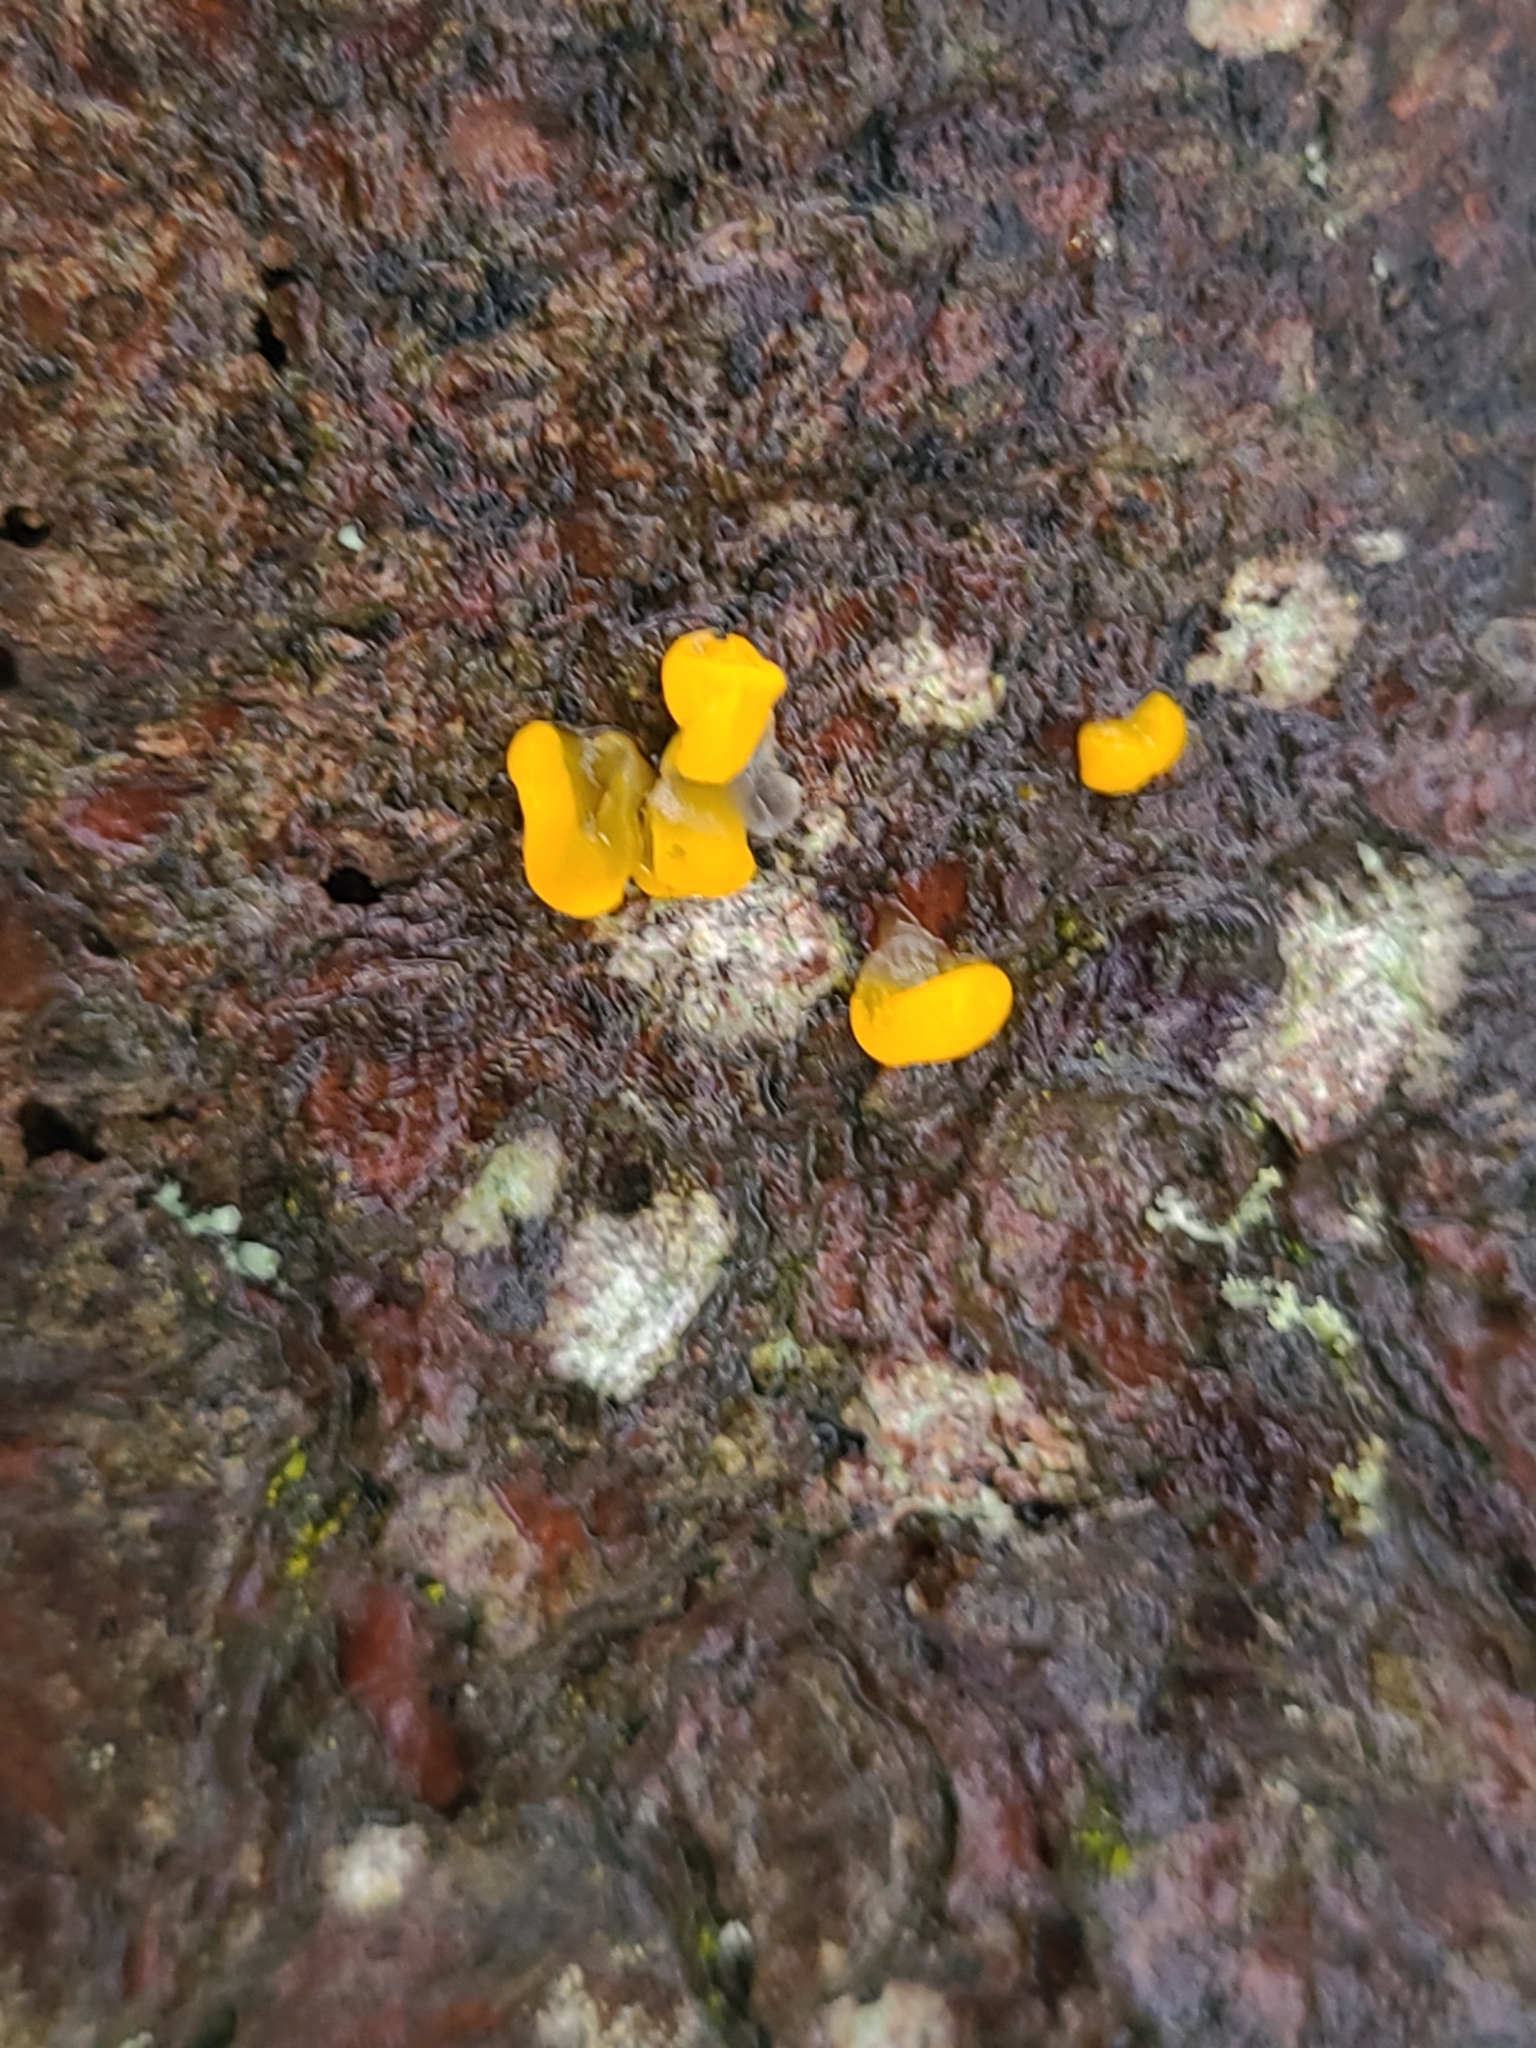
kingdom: Fungi
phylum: Basidiomycota
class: Dacrymycetes
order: Dacrymycetales
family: Dacrymycetaceae
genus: Dacrymyces
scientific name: Dacrymyces chrysospermus
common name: Orange jelly spot
